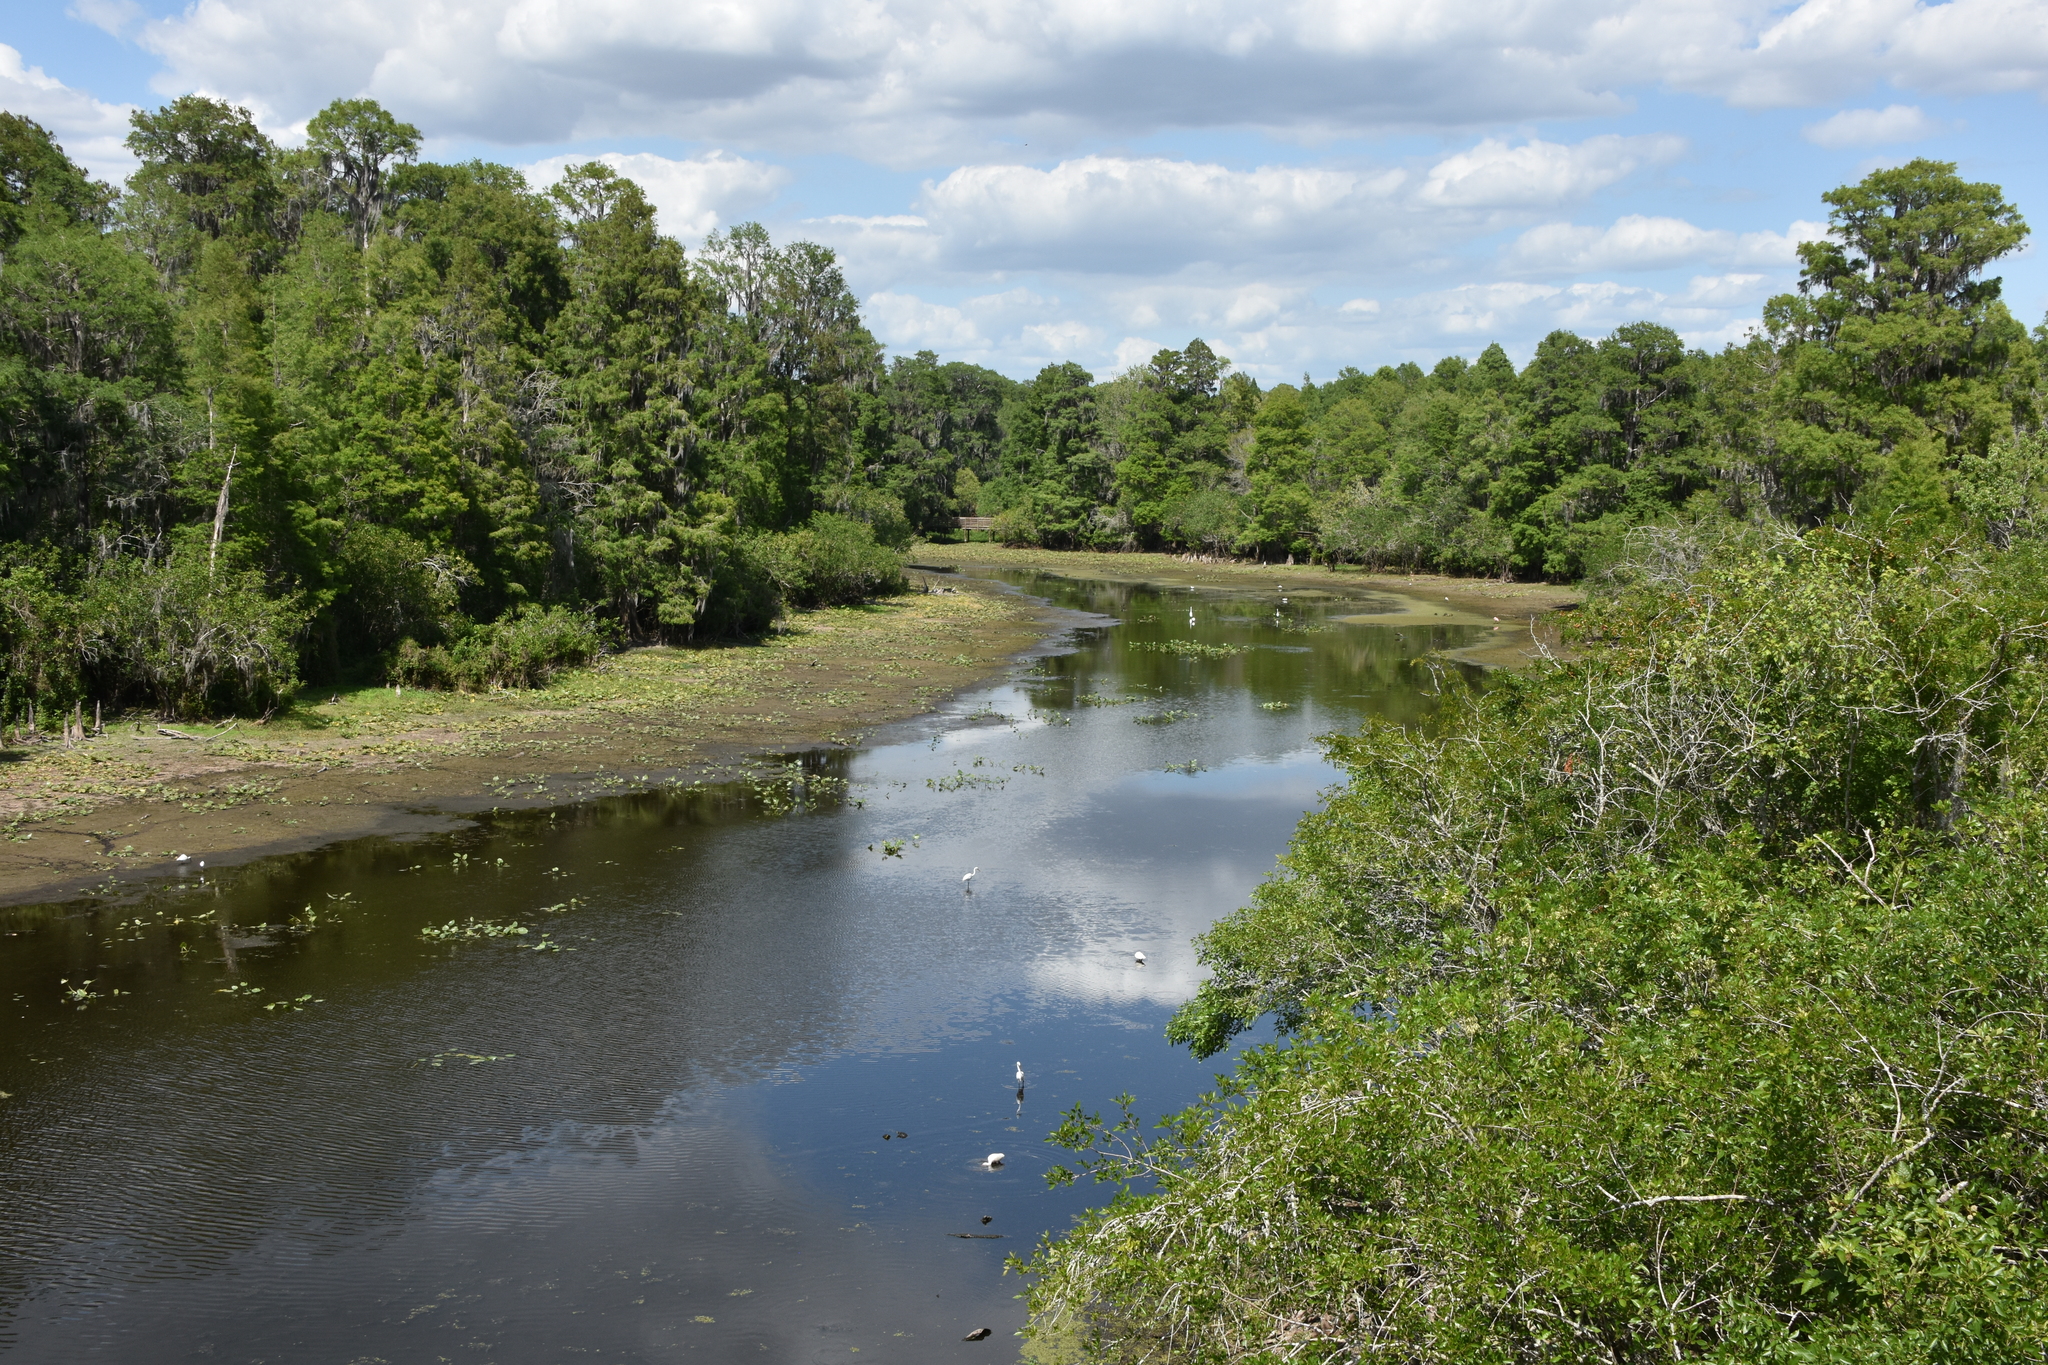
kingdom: Animalia
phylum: Chordata
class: Aves
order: Pelecaniformes
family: Threskiornithidae
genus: Eudocimus
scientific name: Eudocimus albus
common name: White ibis
